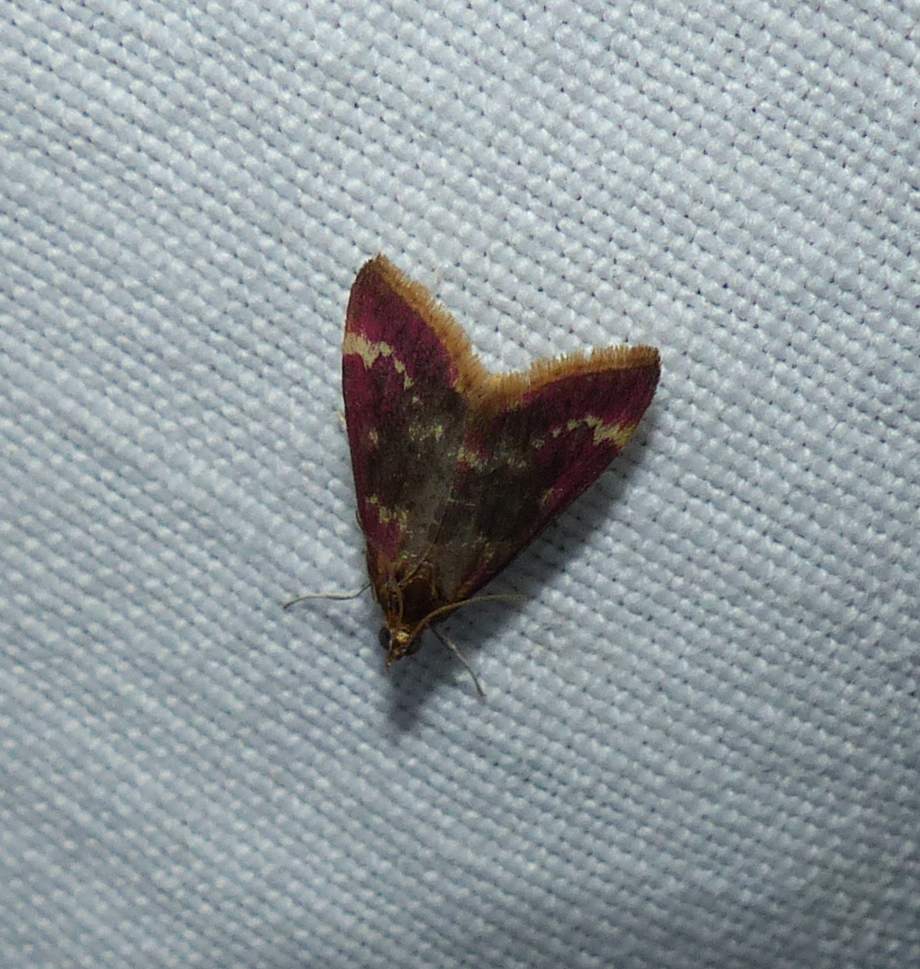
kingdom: Animalia
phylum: Arthropoda
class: Insecta
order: Lepidoptera
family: Crambidae
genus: Pyrausta
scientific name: Pyrausta signatalis
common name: Raspberry pyrausta moth
